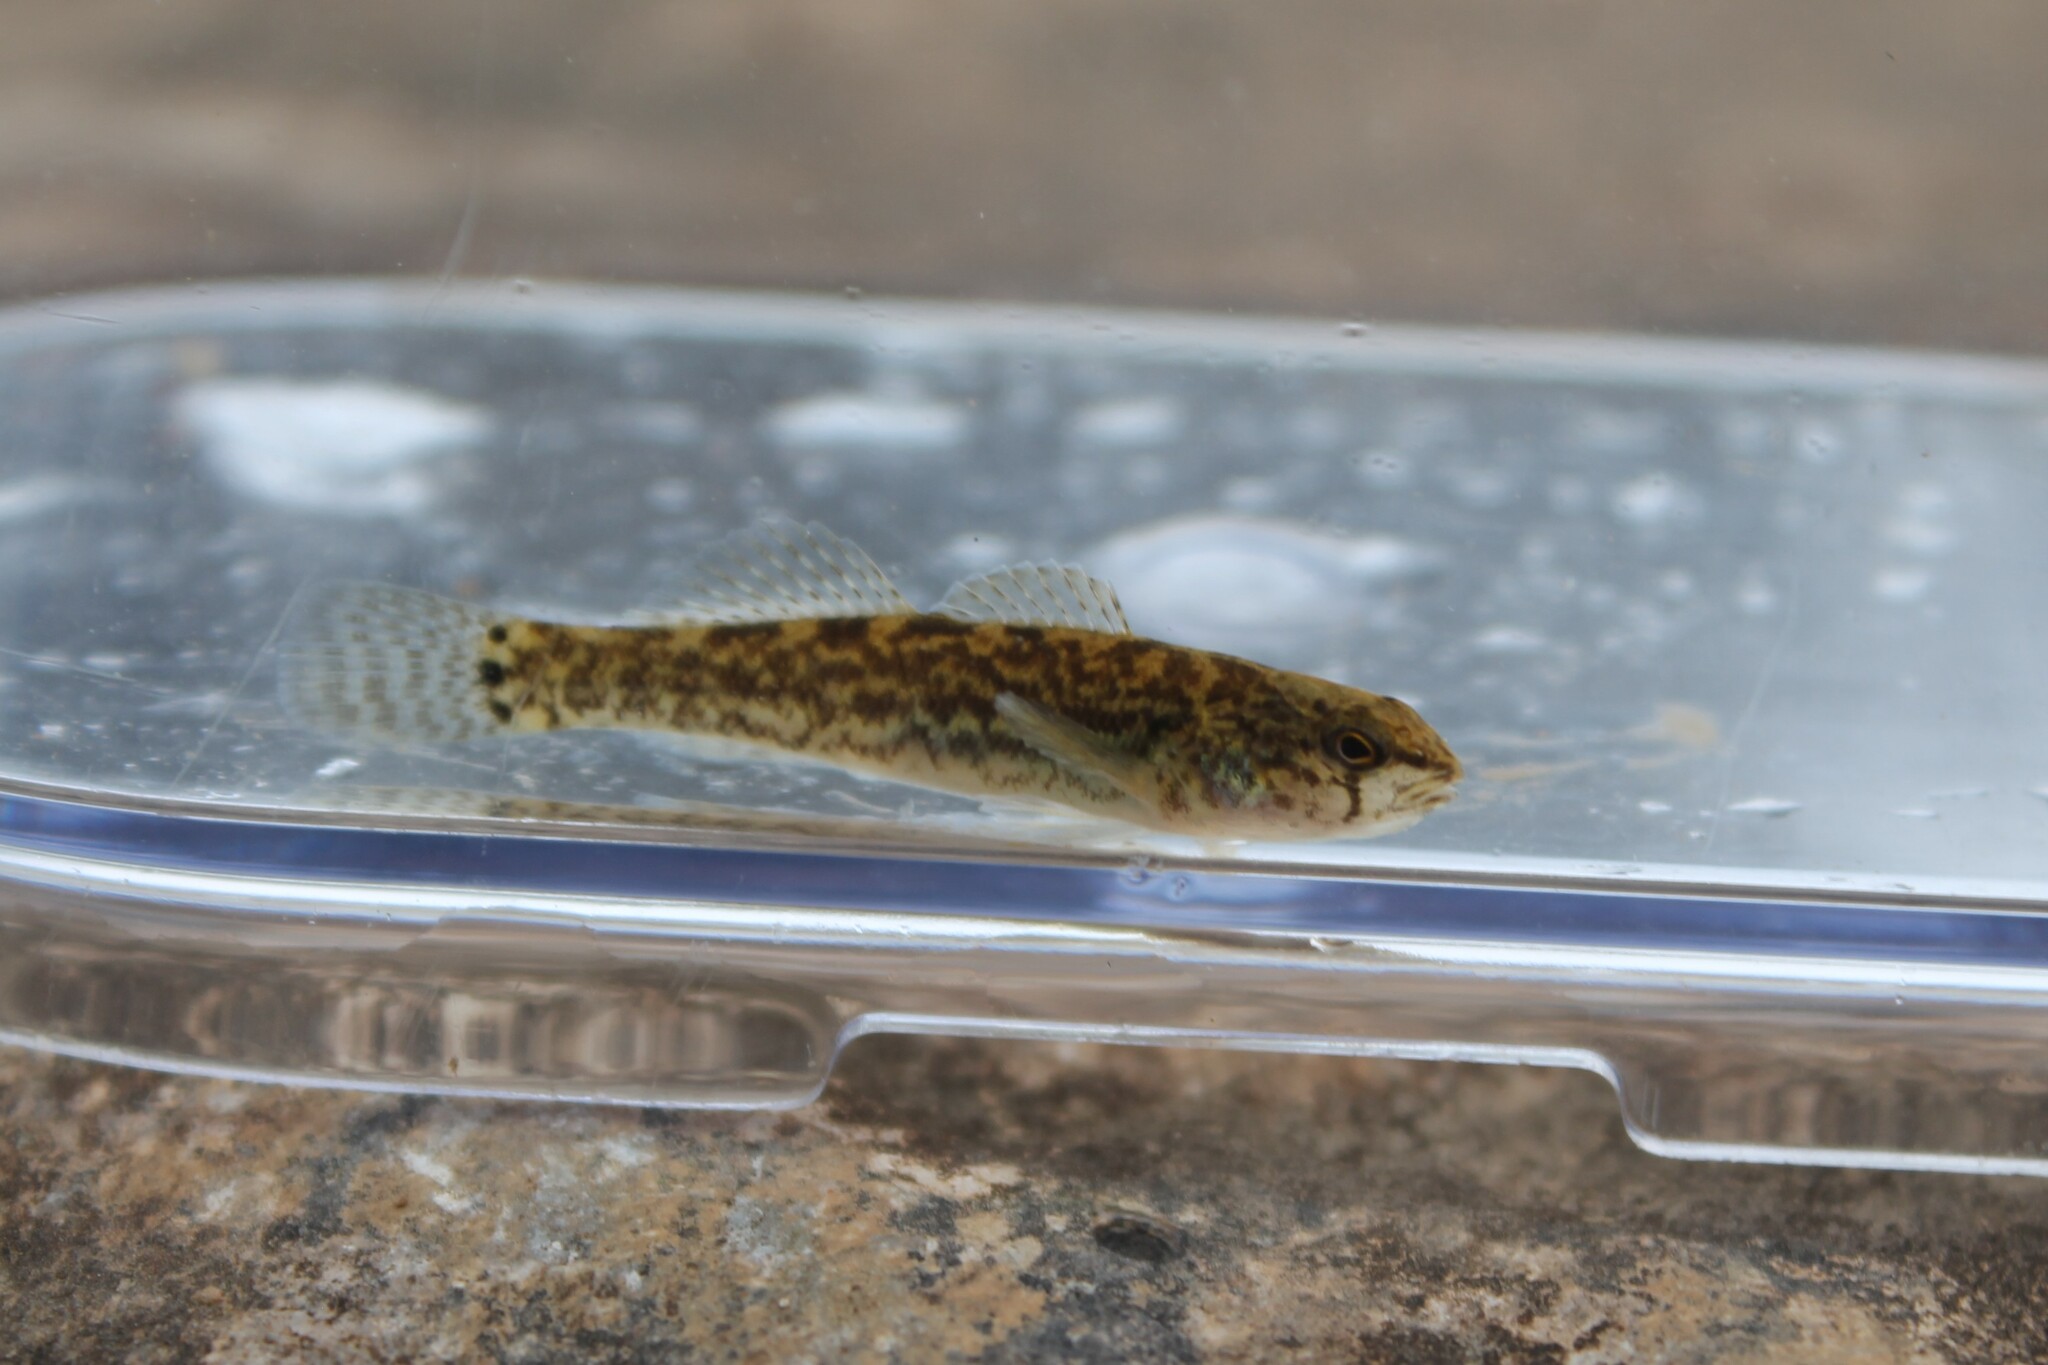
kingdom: Animalia
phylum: Chordata
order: Perciformes
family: Percidae
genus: Etheostoma
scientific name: Etheostoma crossopterum
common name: Fringed darter
